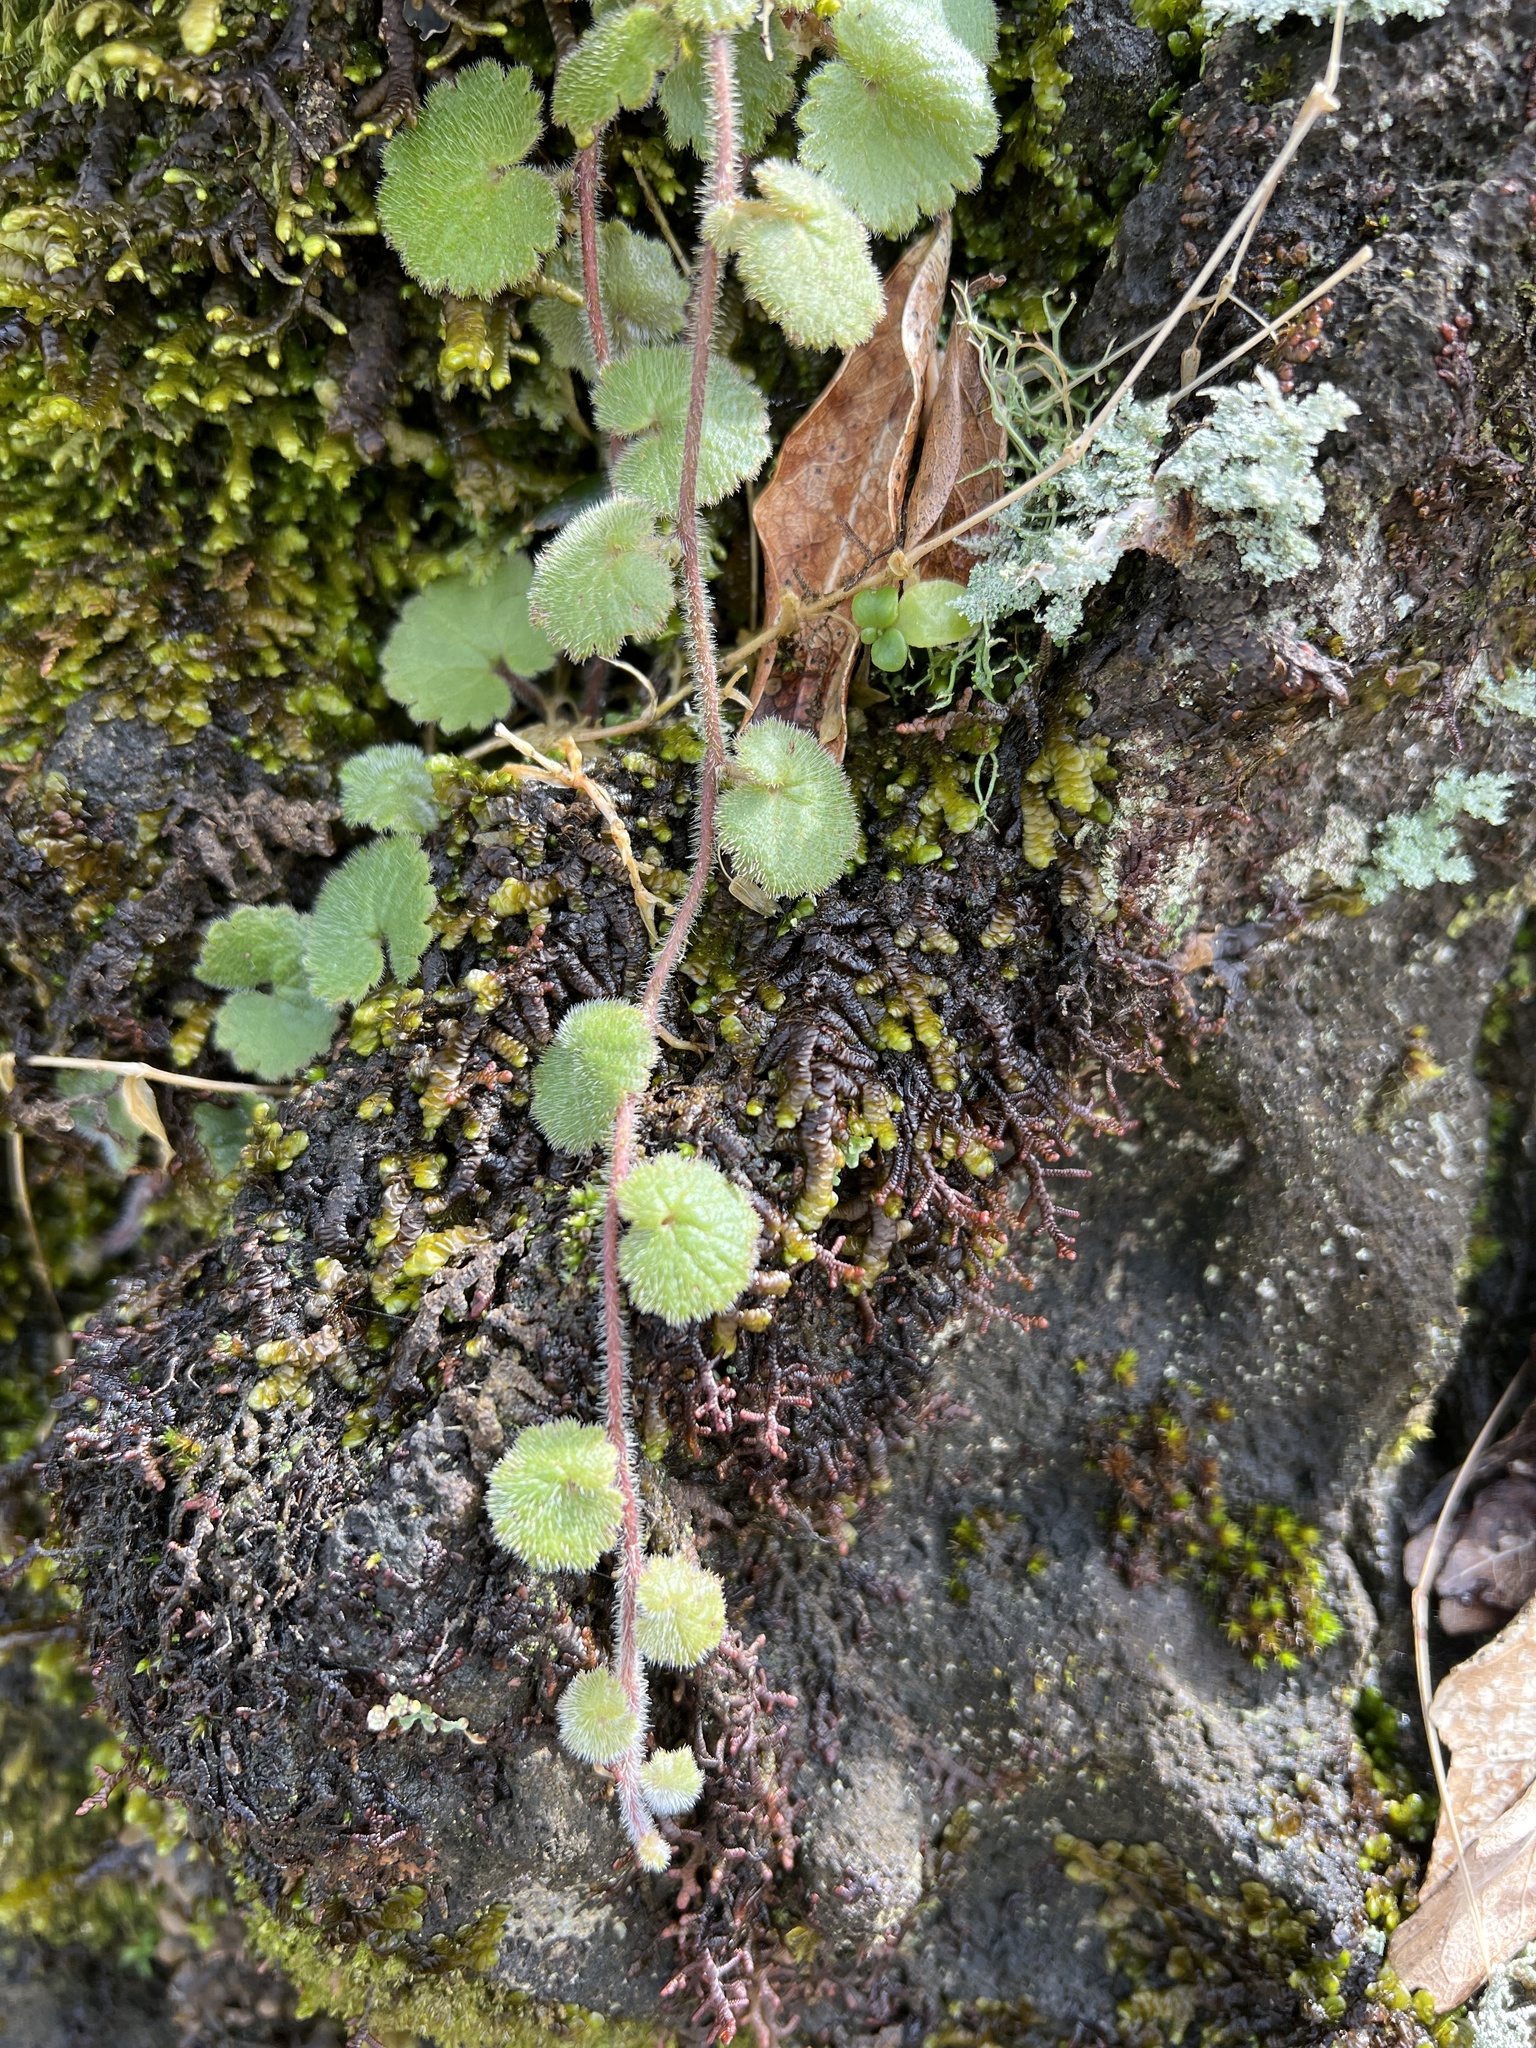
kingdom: Plantae
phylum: Tracheophyta
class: Magnoliopsida
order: Lamiales
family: Plantaginaceae
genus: Sibthorpia
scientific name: Sibthorpia peregrina
